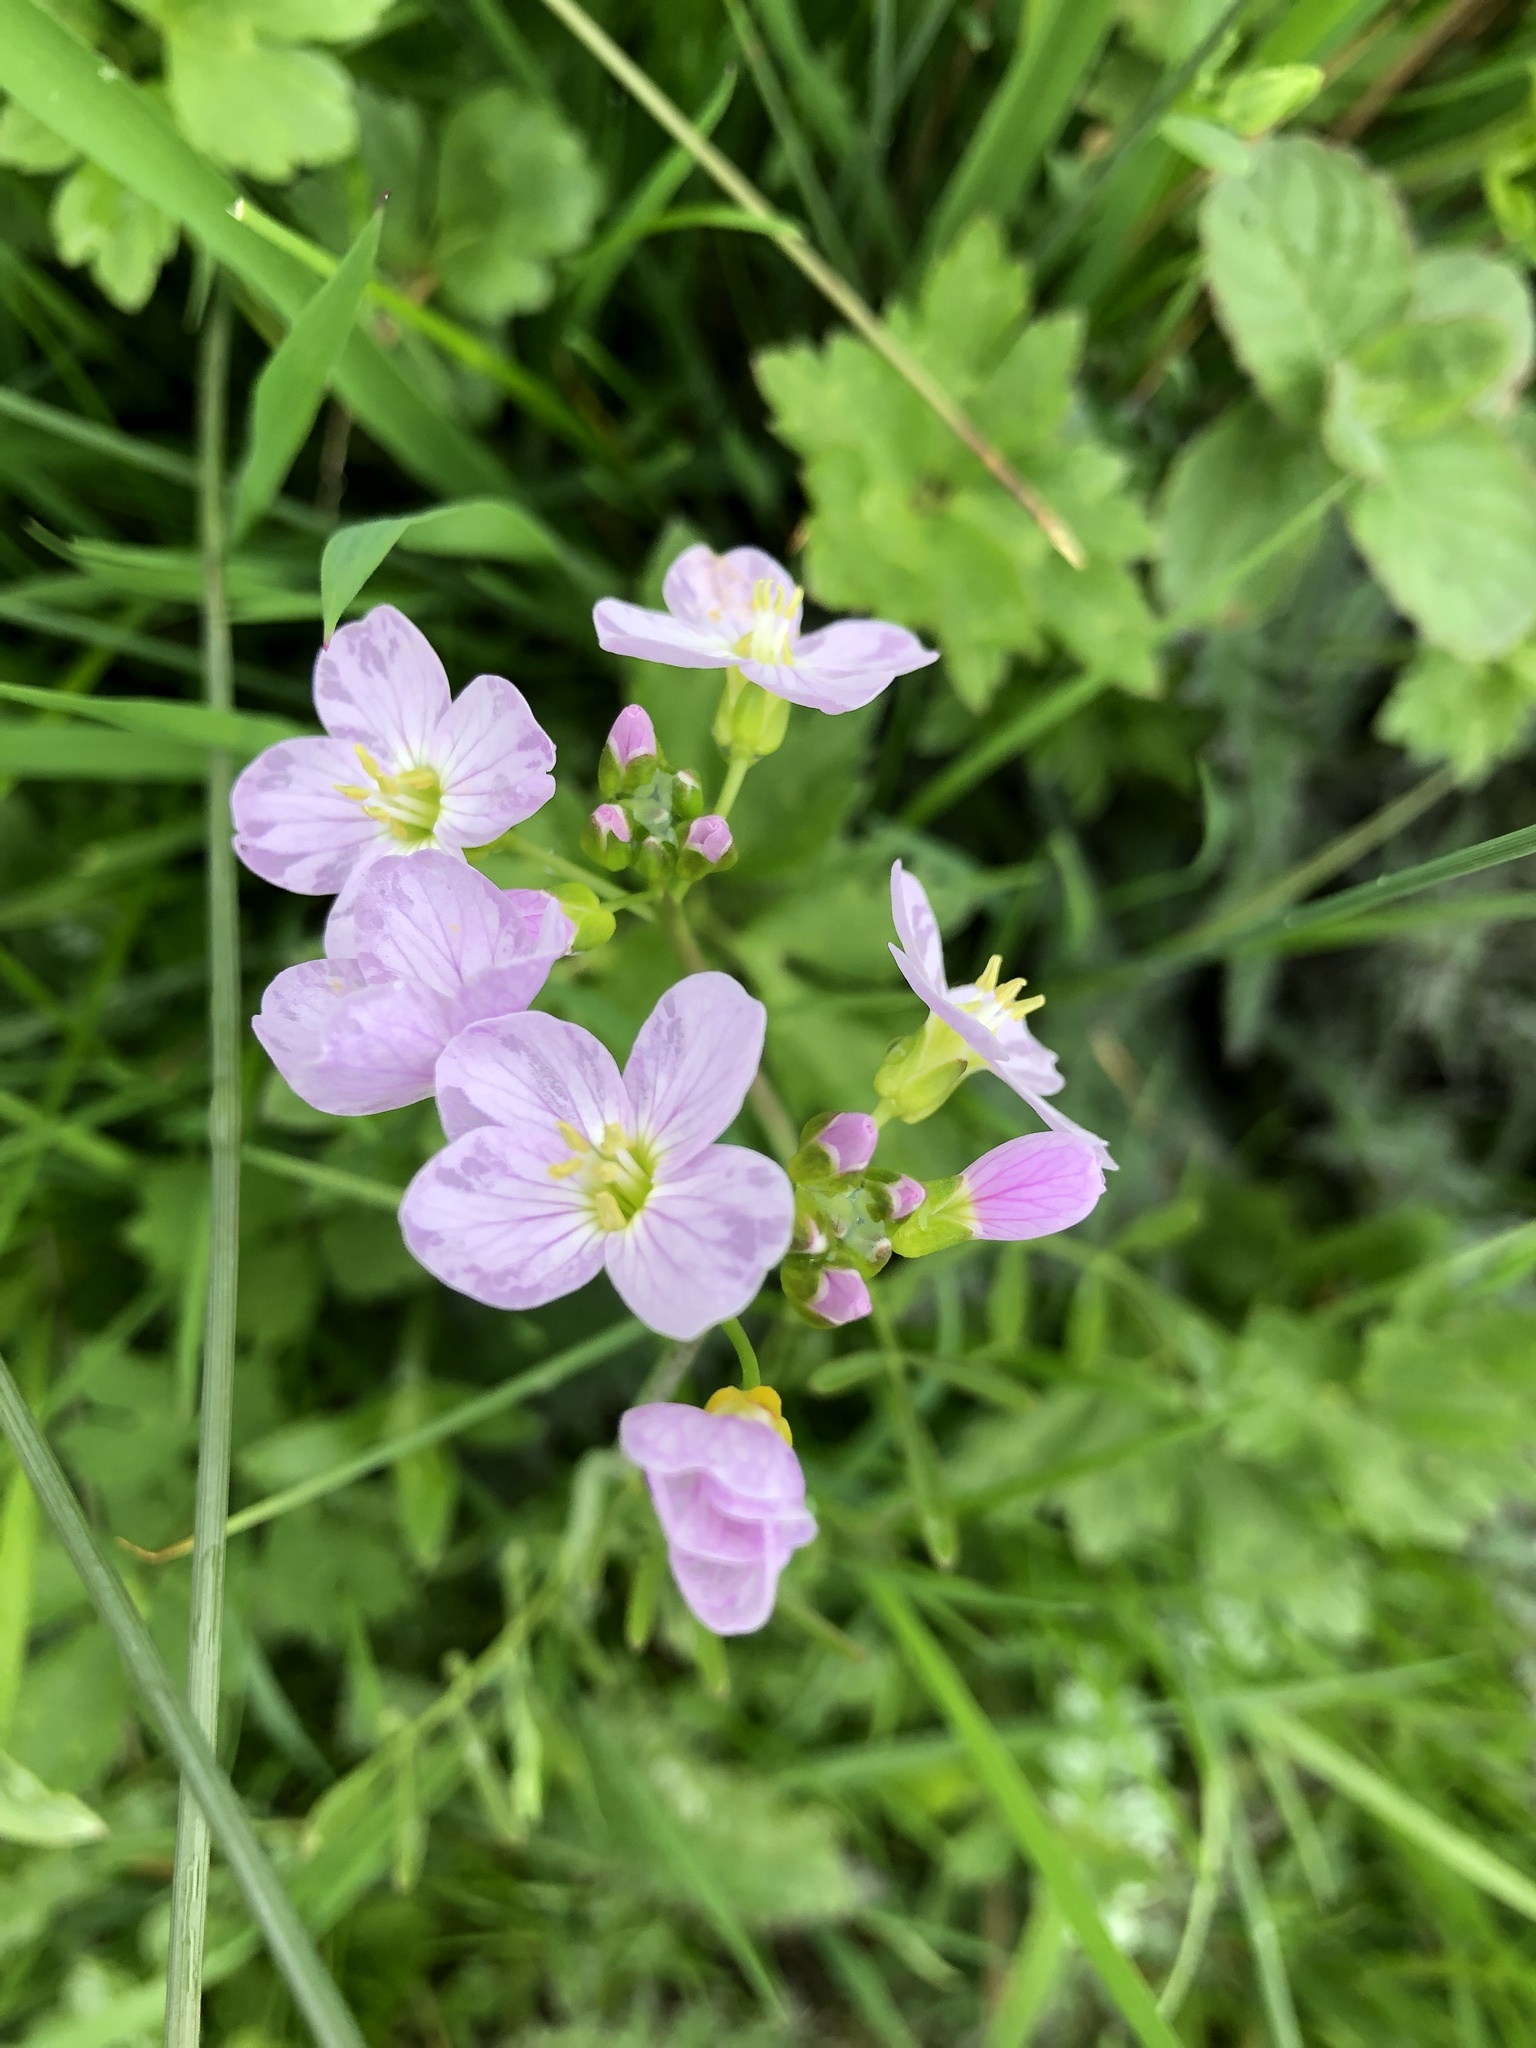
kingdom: Plantae
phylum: Tracheophyta
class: Magnoliopsida
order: Brassicales
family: Brassicaceae
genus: Cardamine
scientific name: Cardamine pratensis
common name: Cuckoo flower
